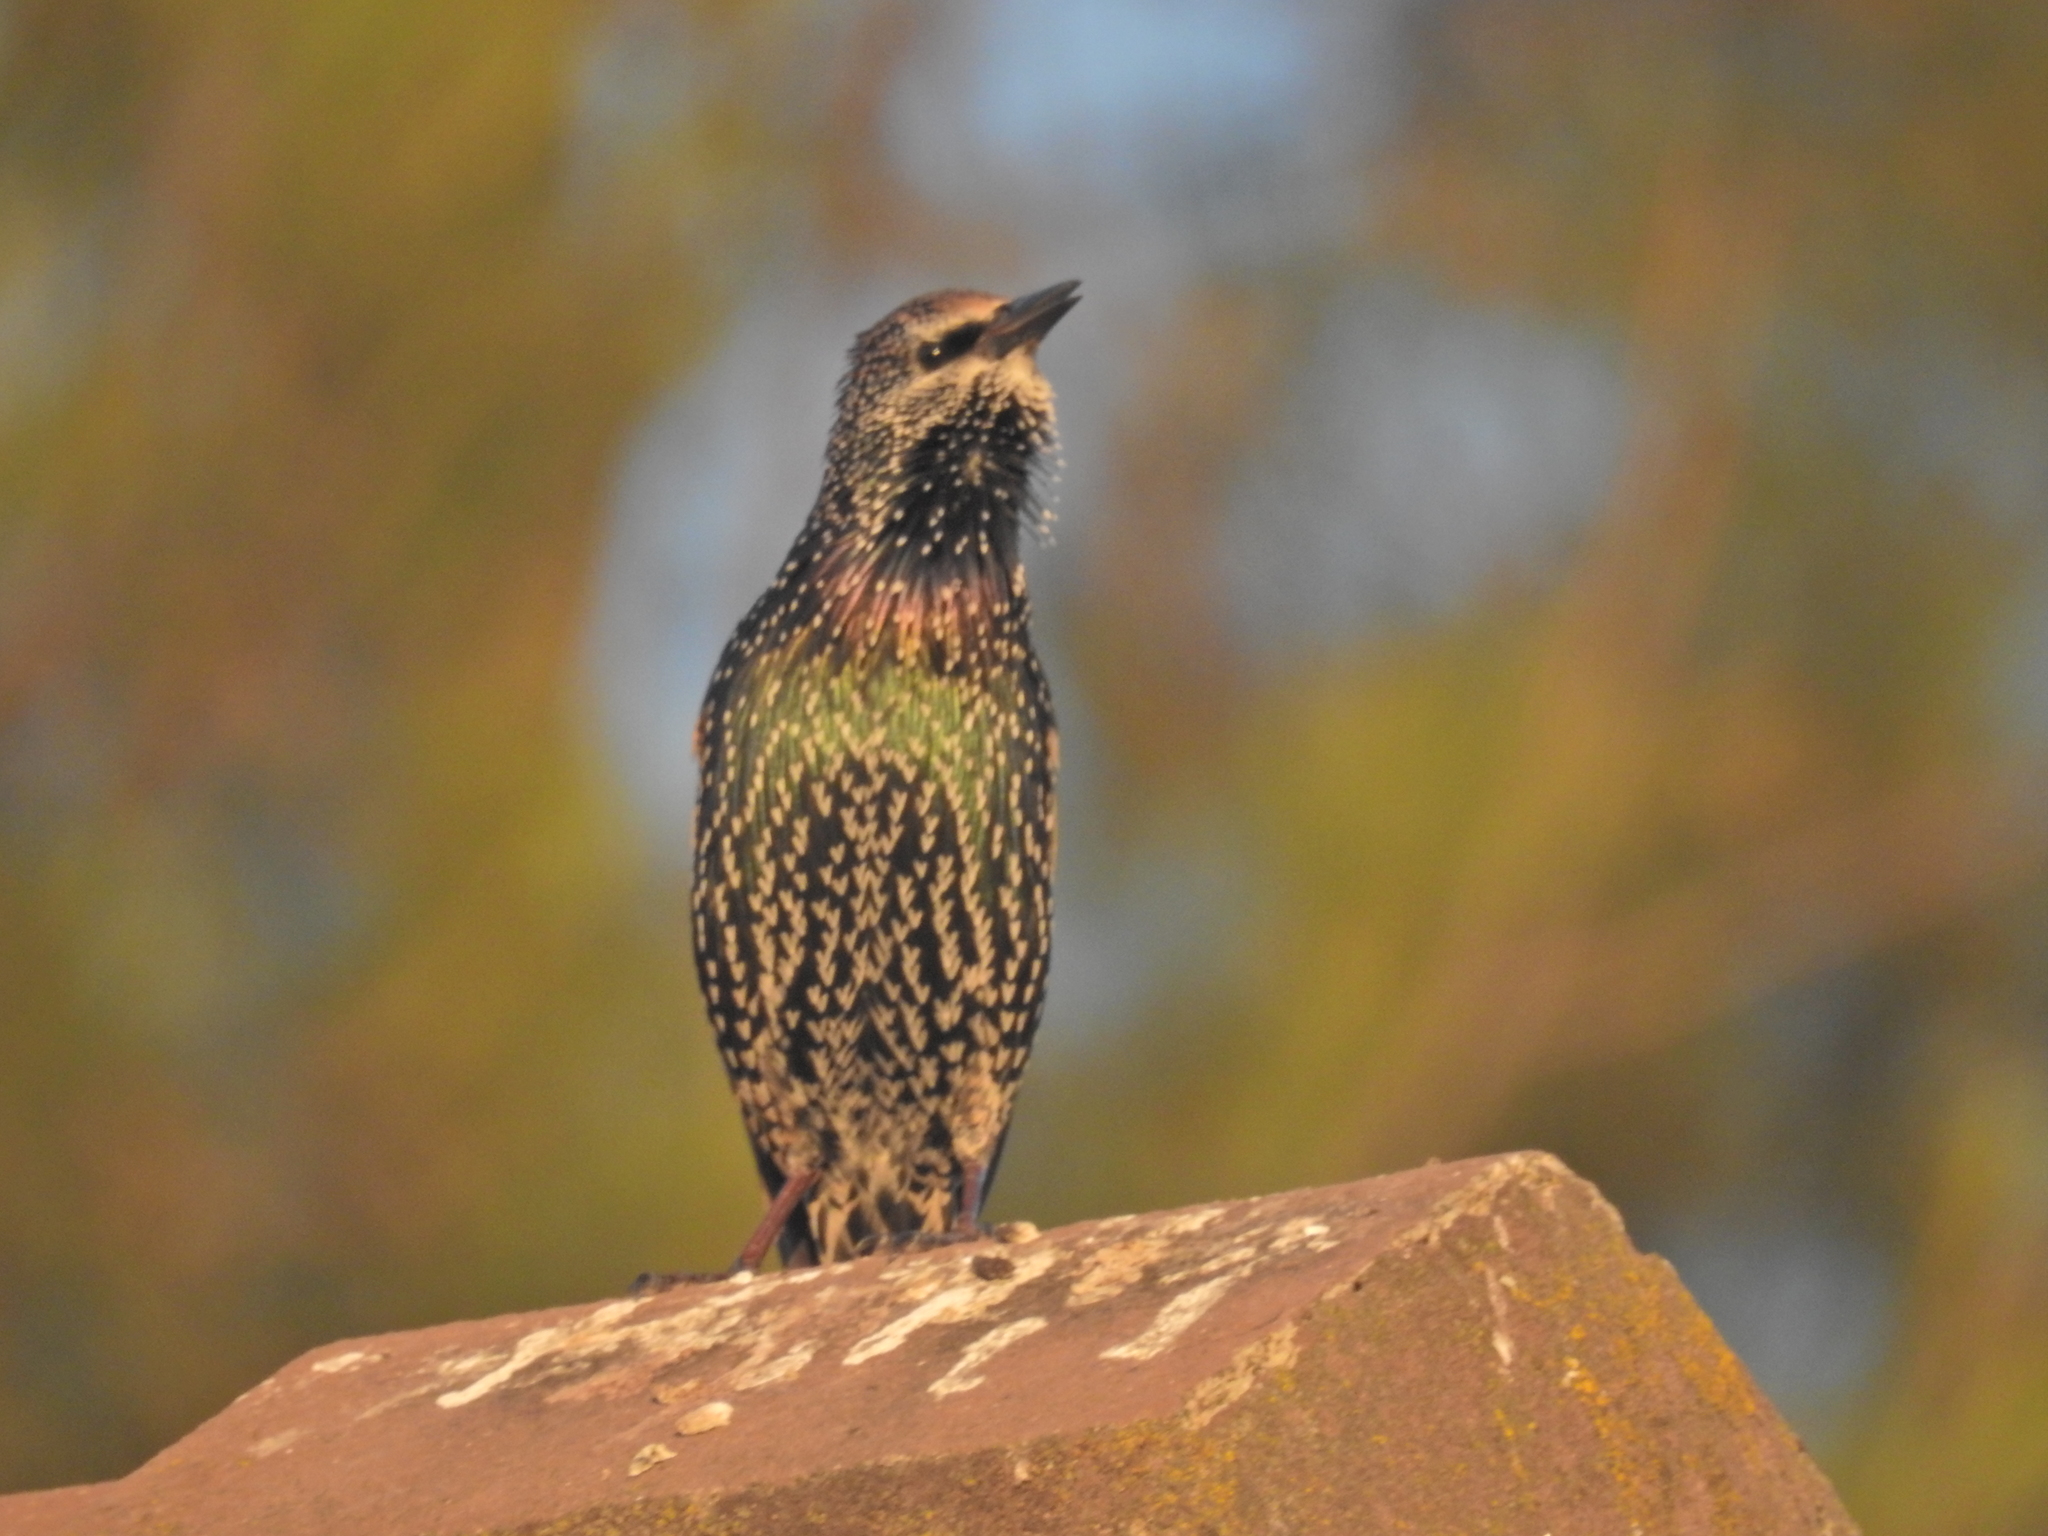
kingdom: Animalia
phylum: Chordata
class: Aves
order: Passeriformes
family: Sturnidae
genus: Sturnus
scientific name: Sturnus vulgaris
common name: Common starling
